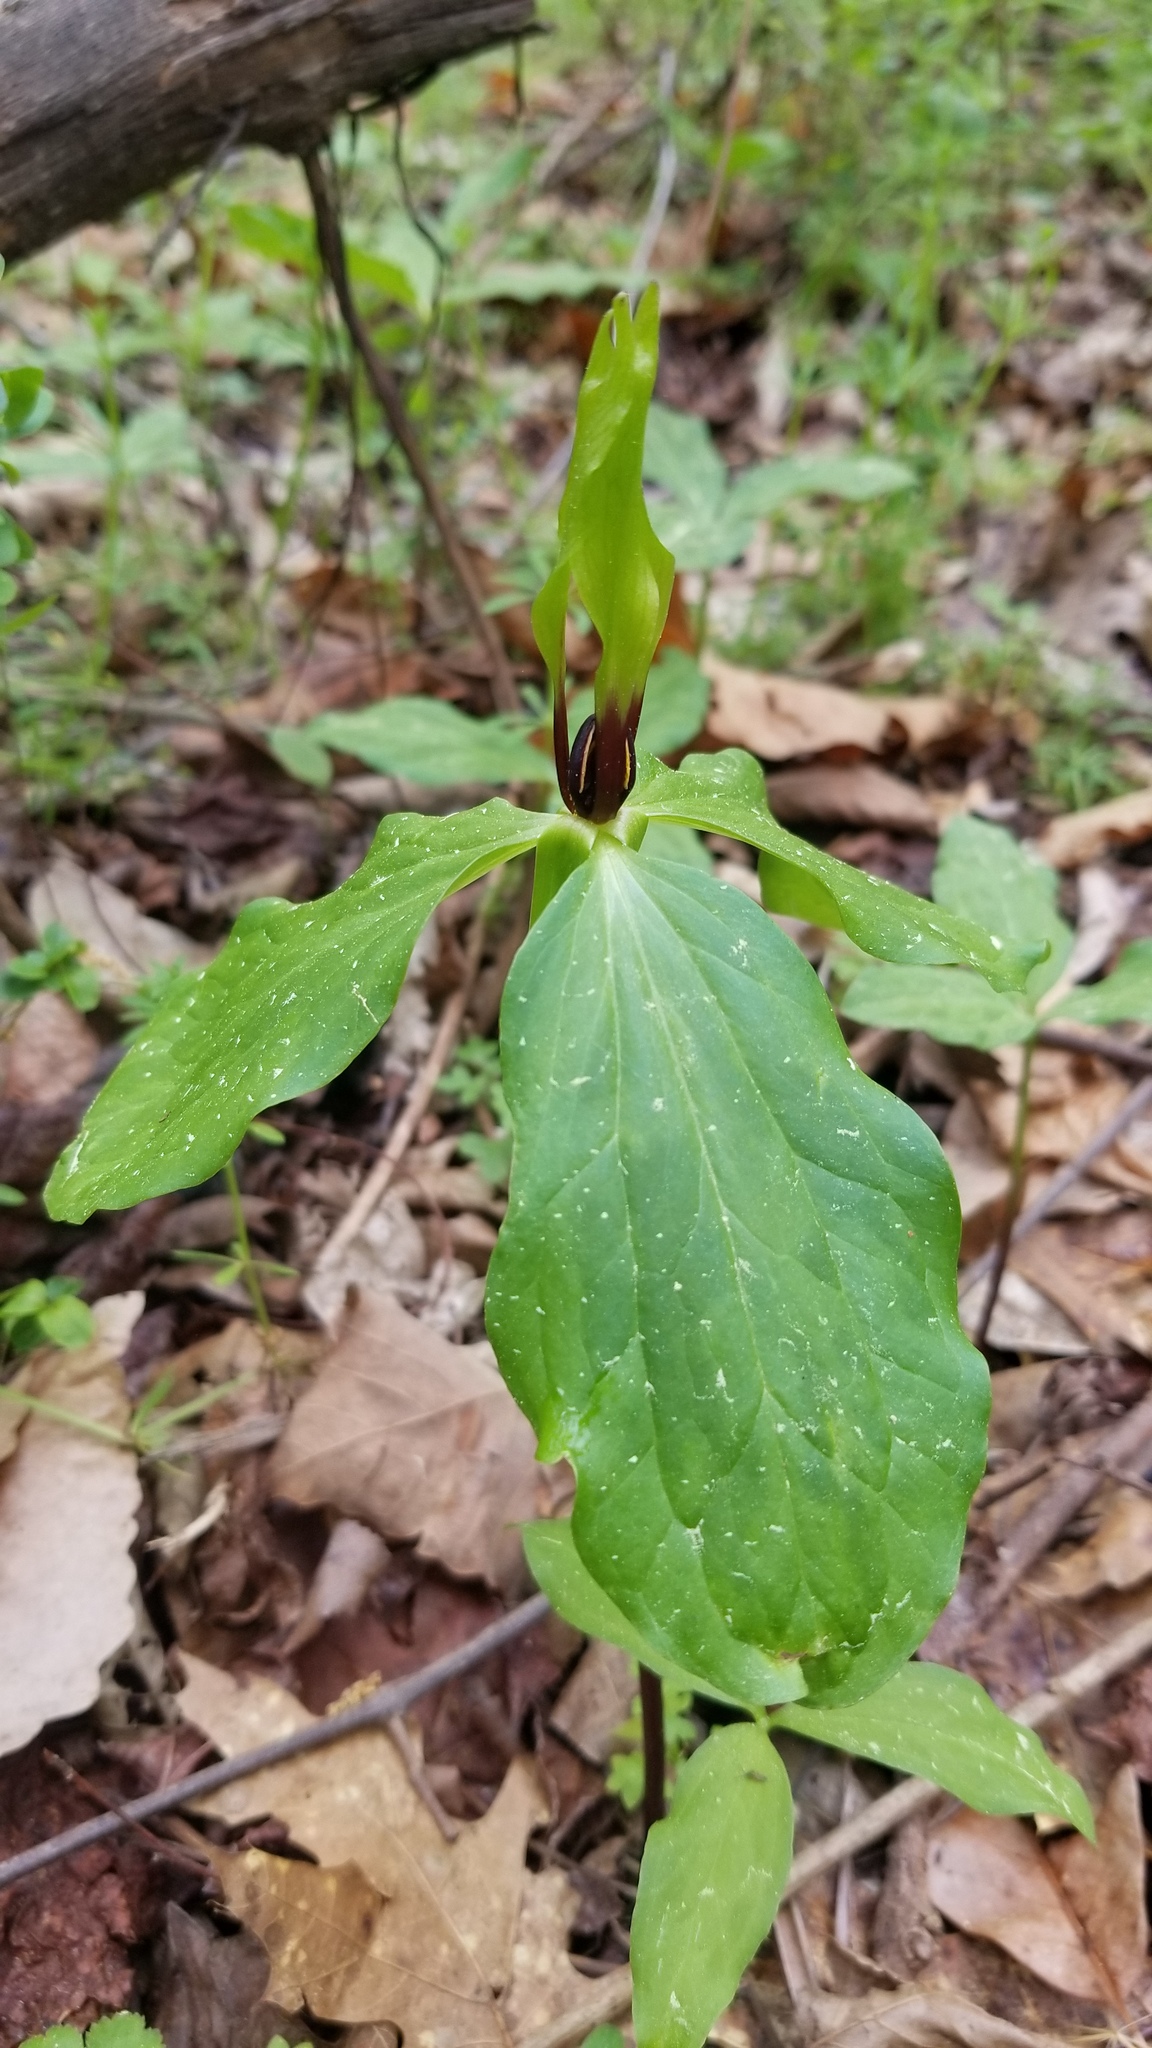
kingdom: Plantae
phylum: Tracheophyta
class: Liliopsida
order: Liliales
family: Melanthiaceae
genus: Trillium
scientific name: Trillium oostingii
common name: Wateree trillium
